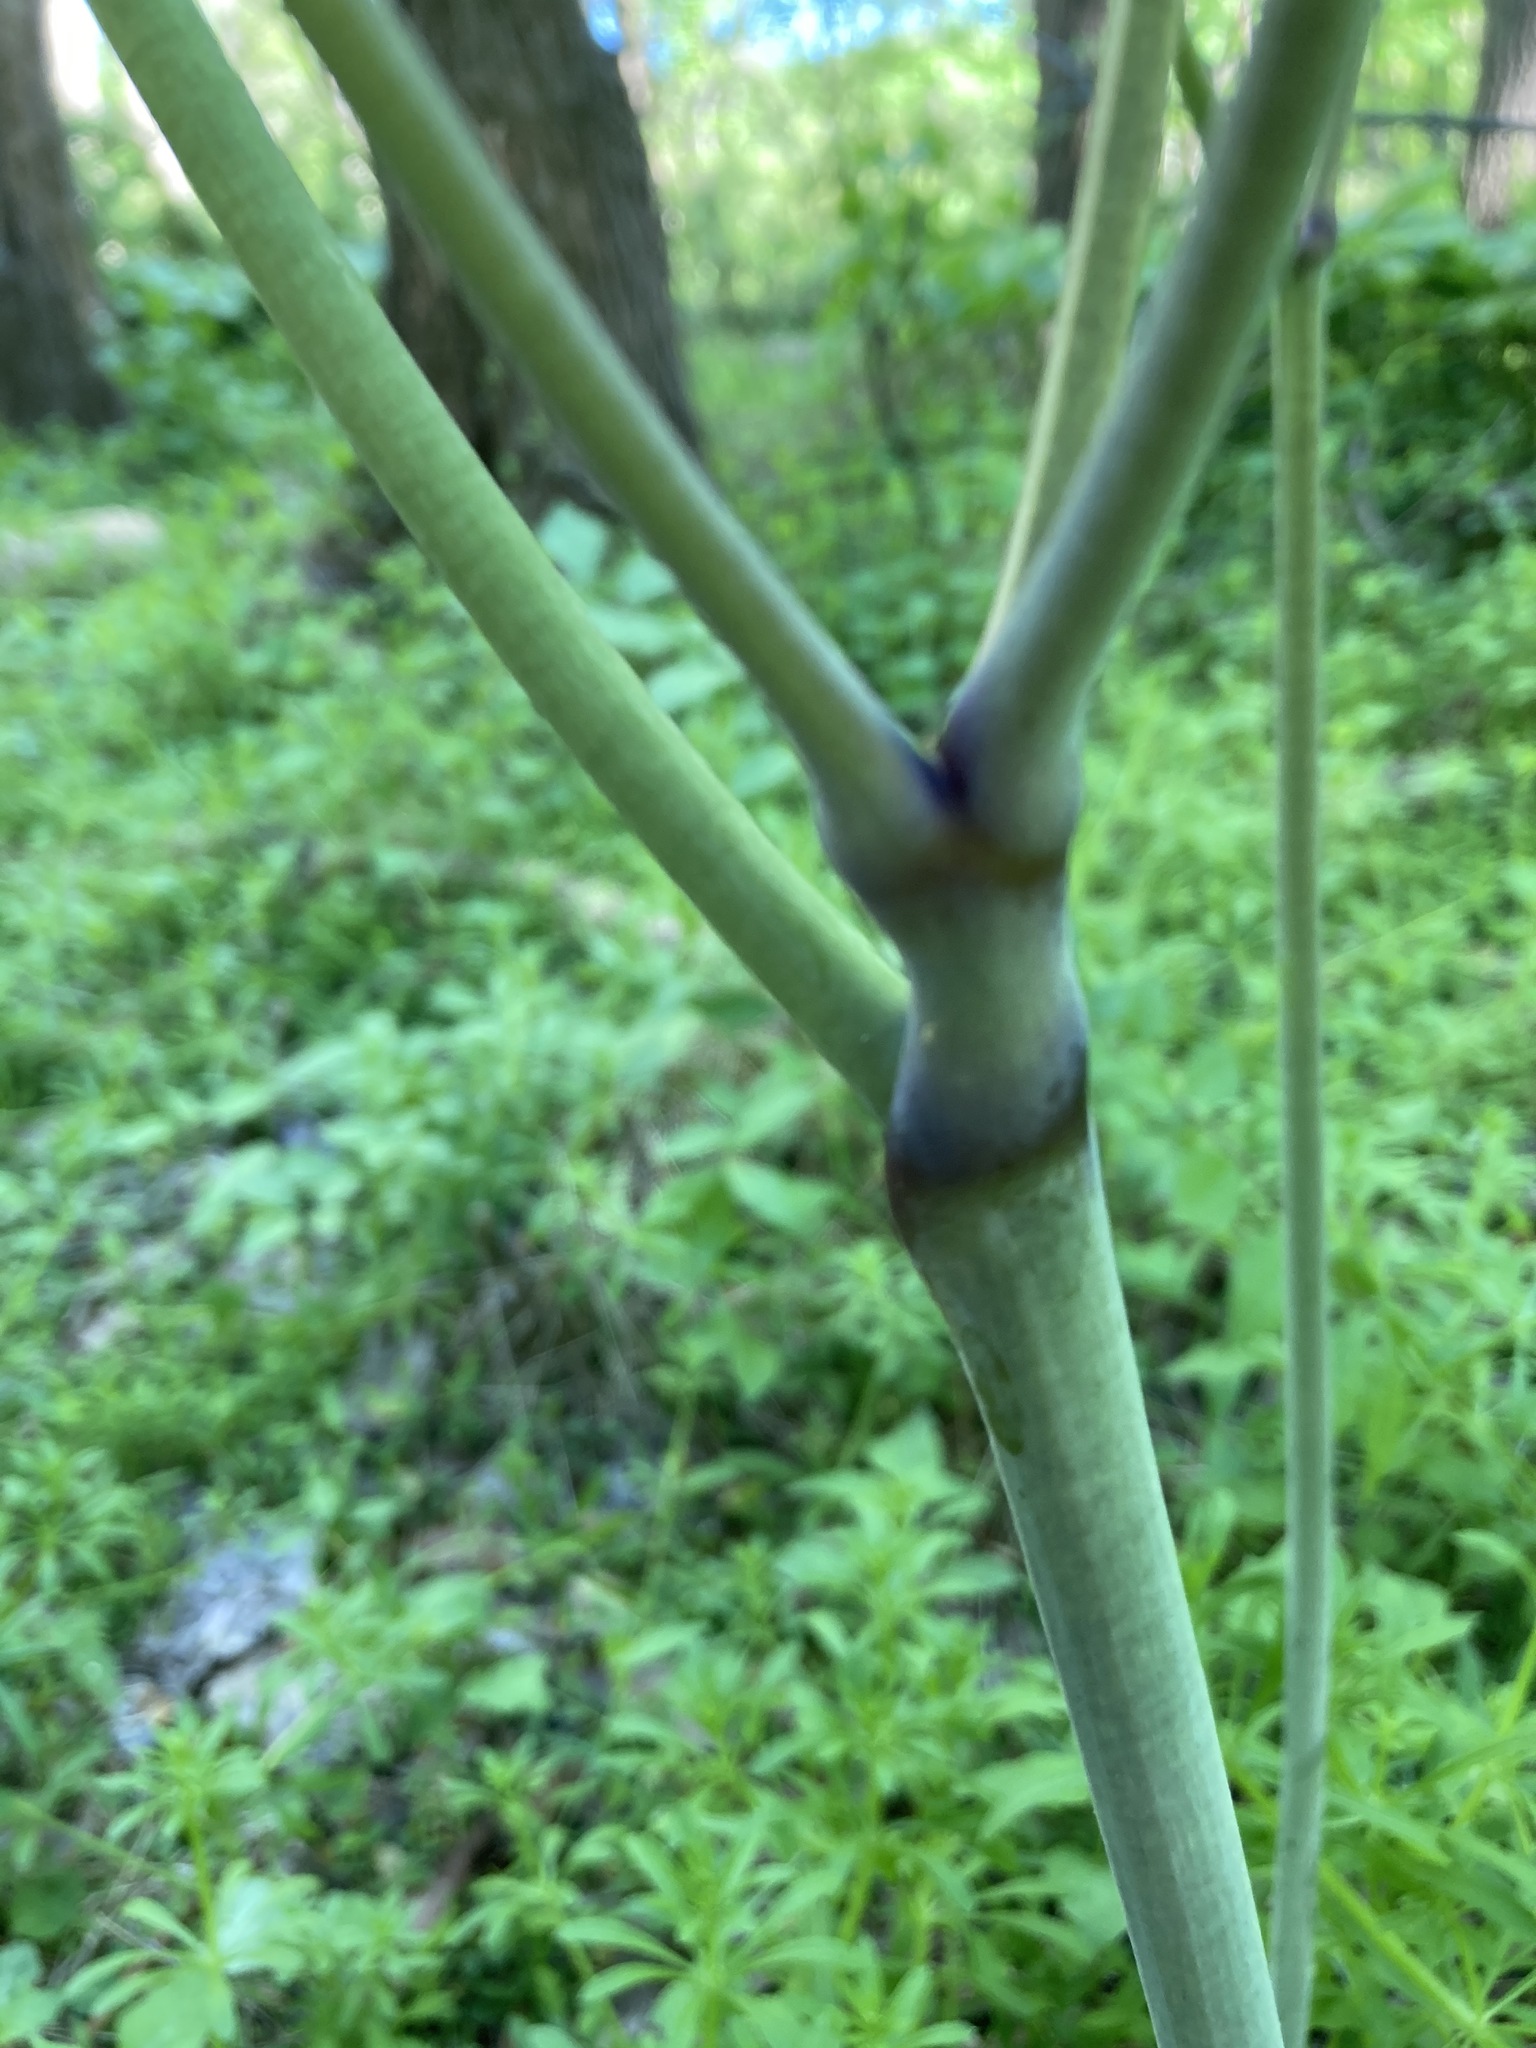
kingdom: Plantae
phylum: Tracheophyta
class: Magnoliopsida
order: Ranunculales
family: Ranunculaceae
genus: Actaea
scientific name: Actaea pachypoda
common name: Doll's-eyes
